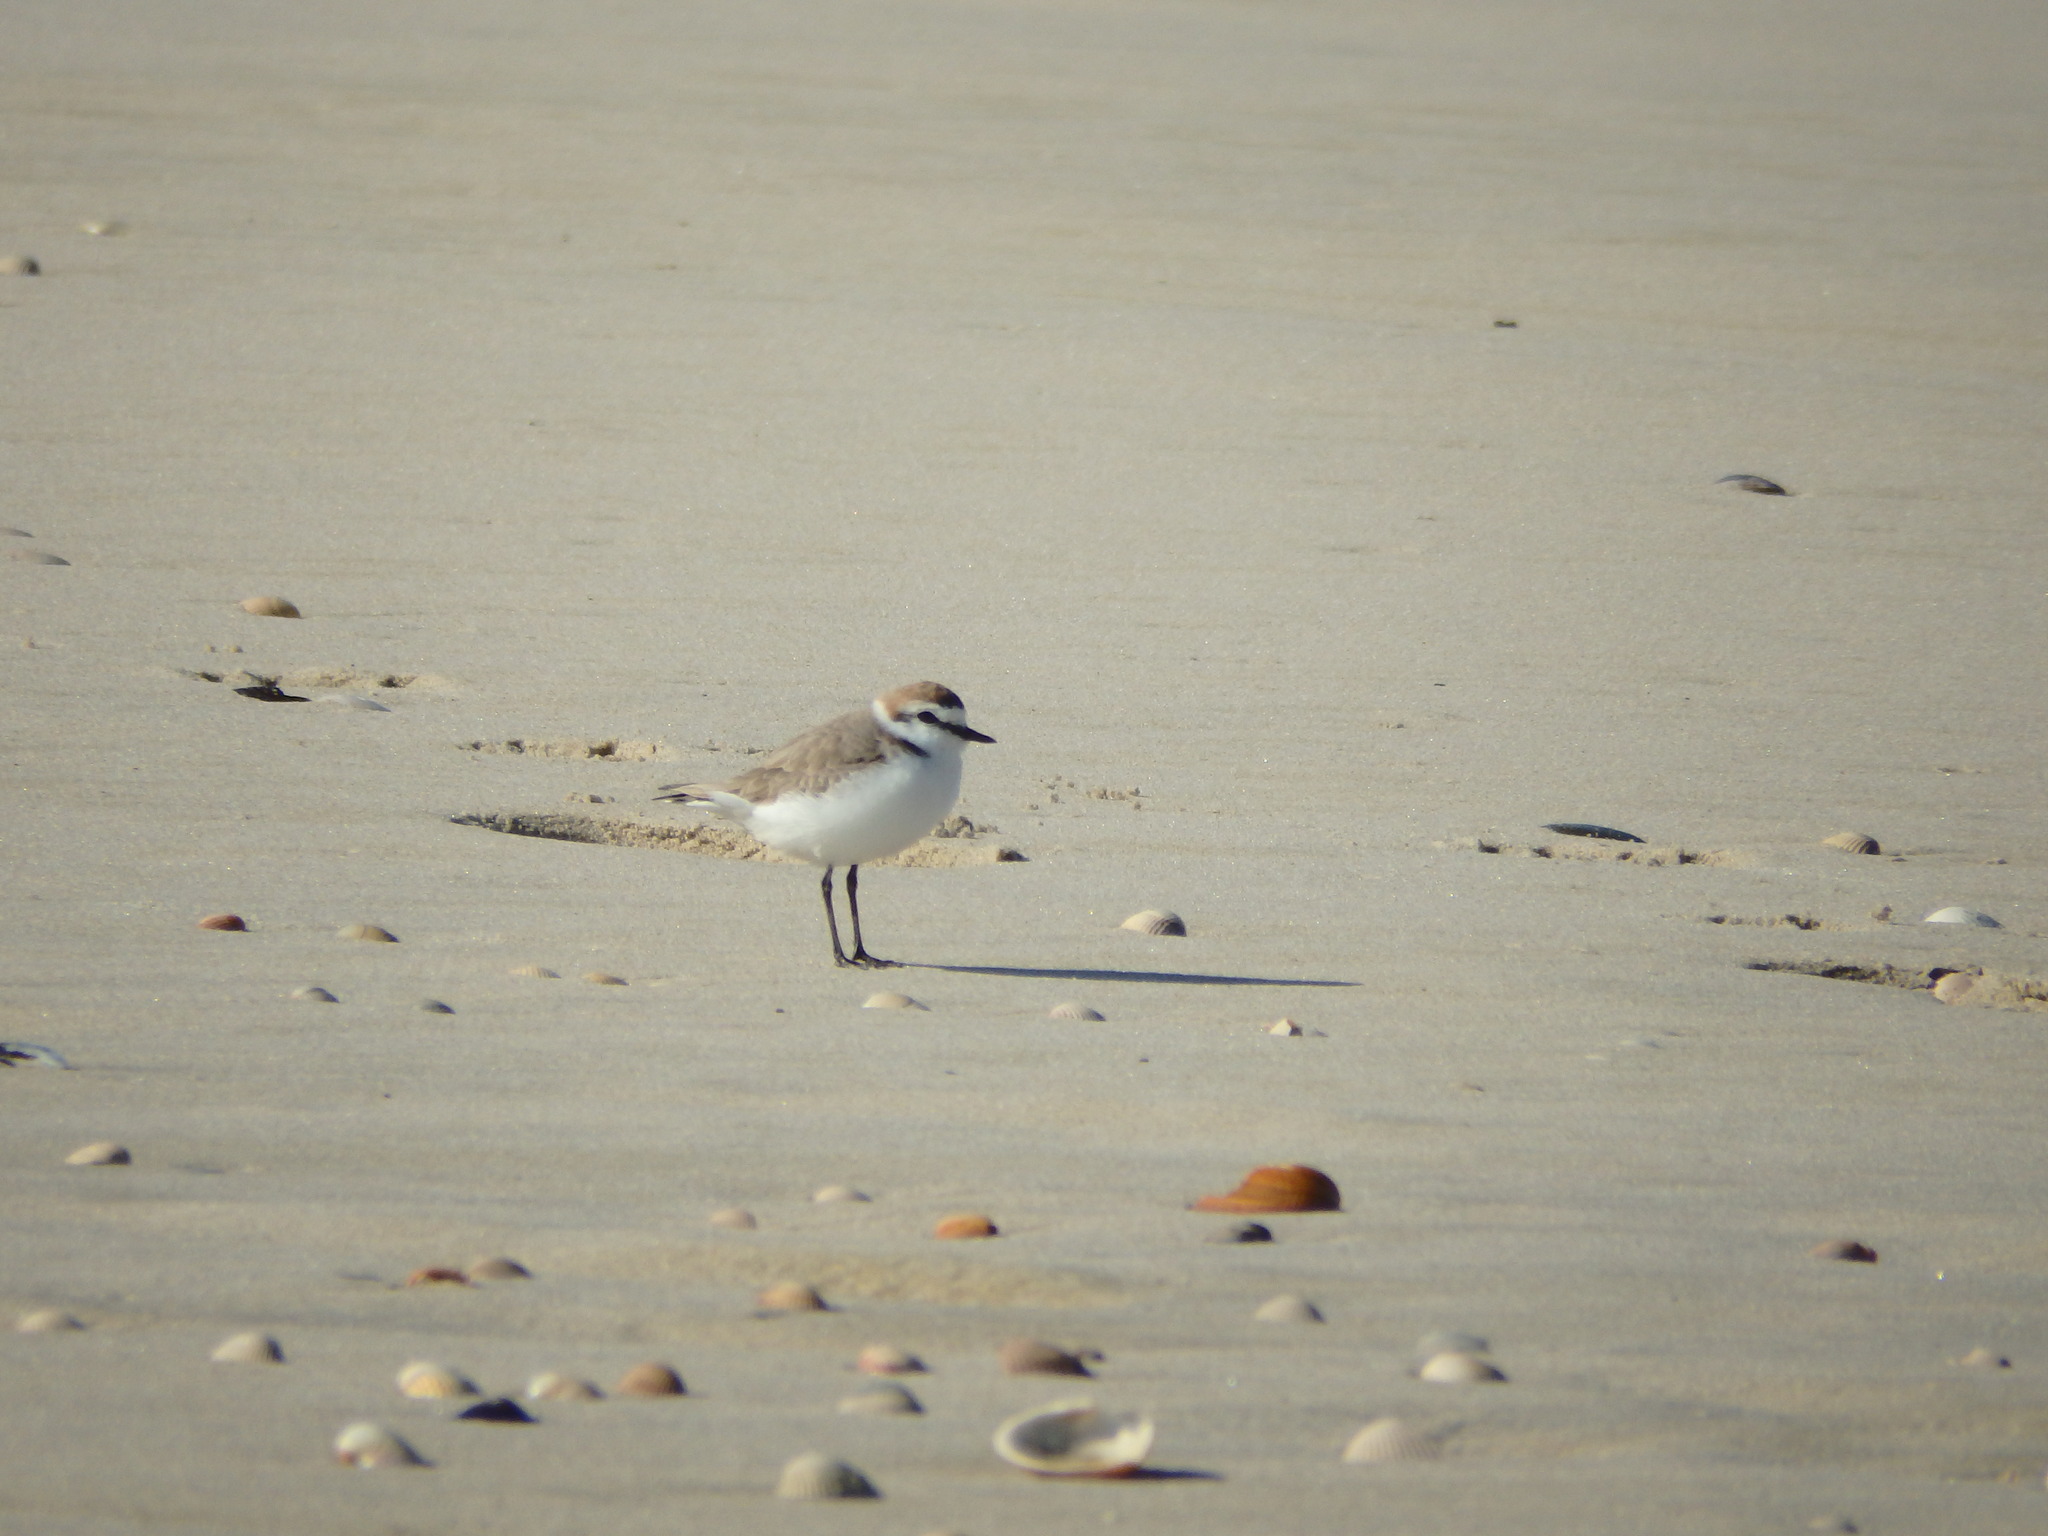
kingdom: Animalia
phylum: Chordata
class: Aves
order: Charadriiformes
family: Charadriidae
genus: Charadrius
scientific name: Charadrius alexandrinus
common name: Kentish plover
